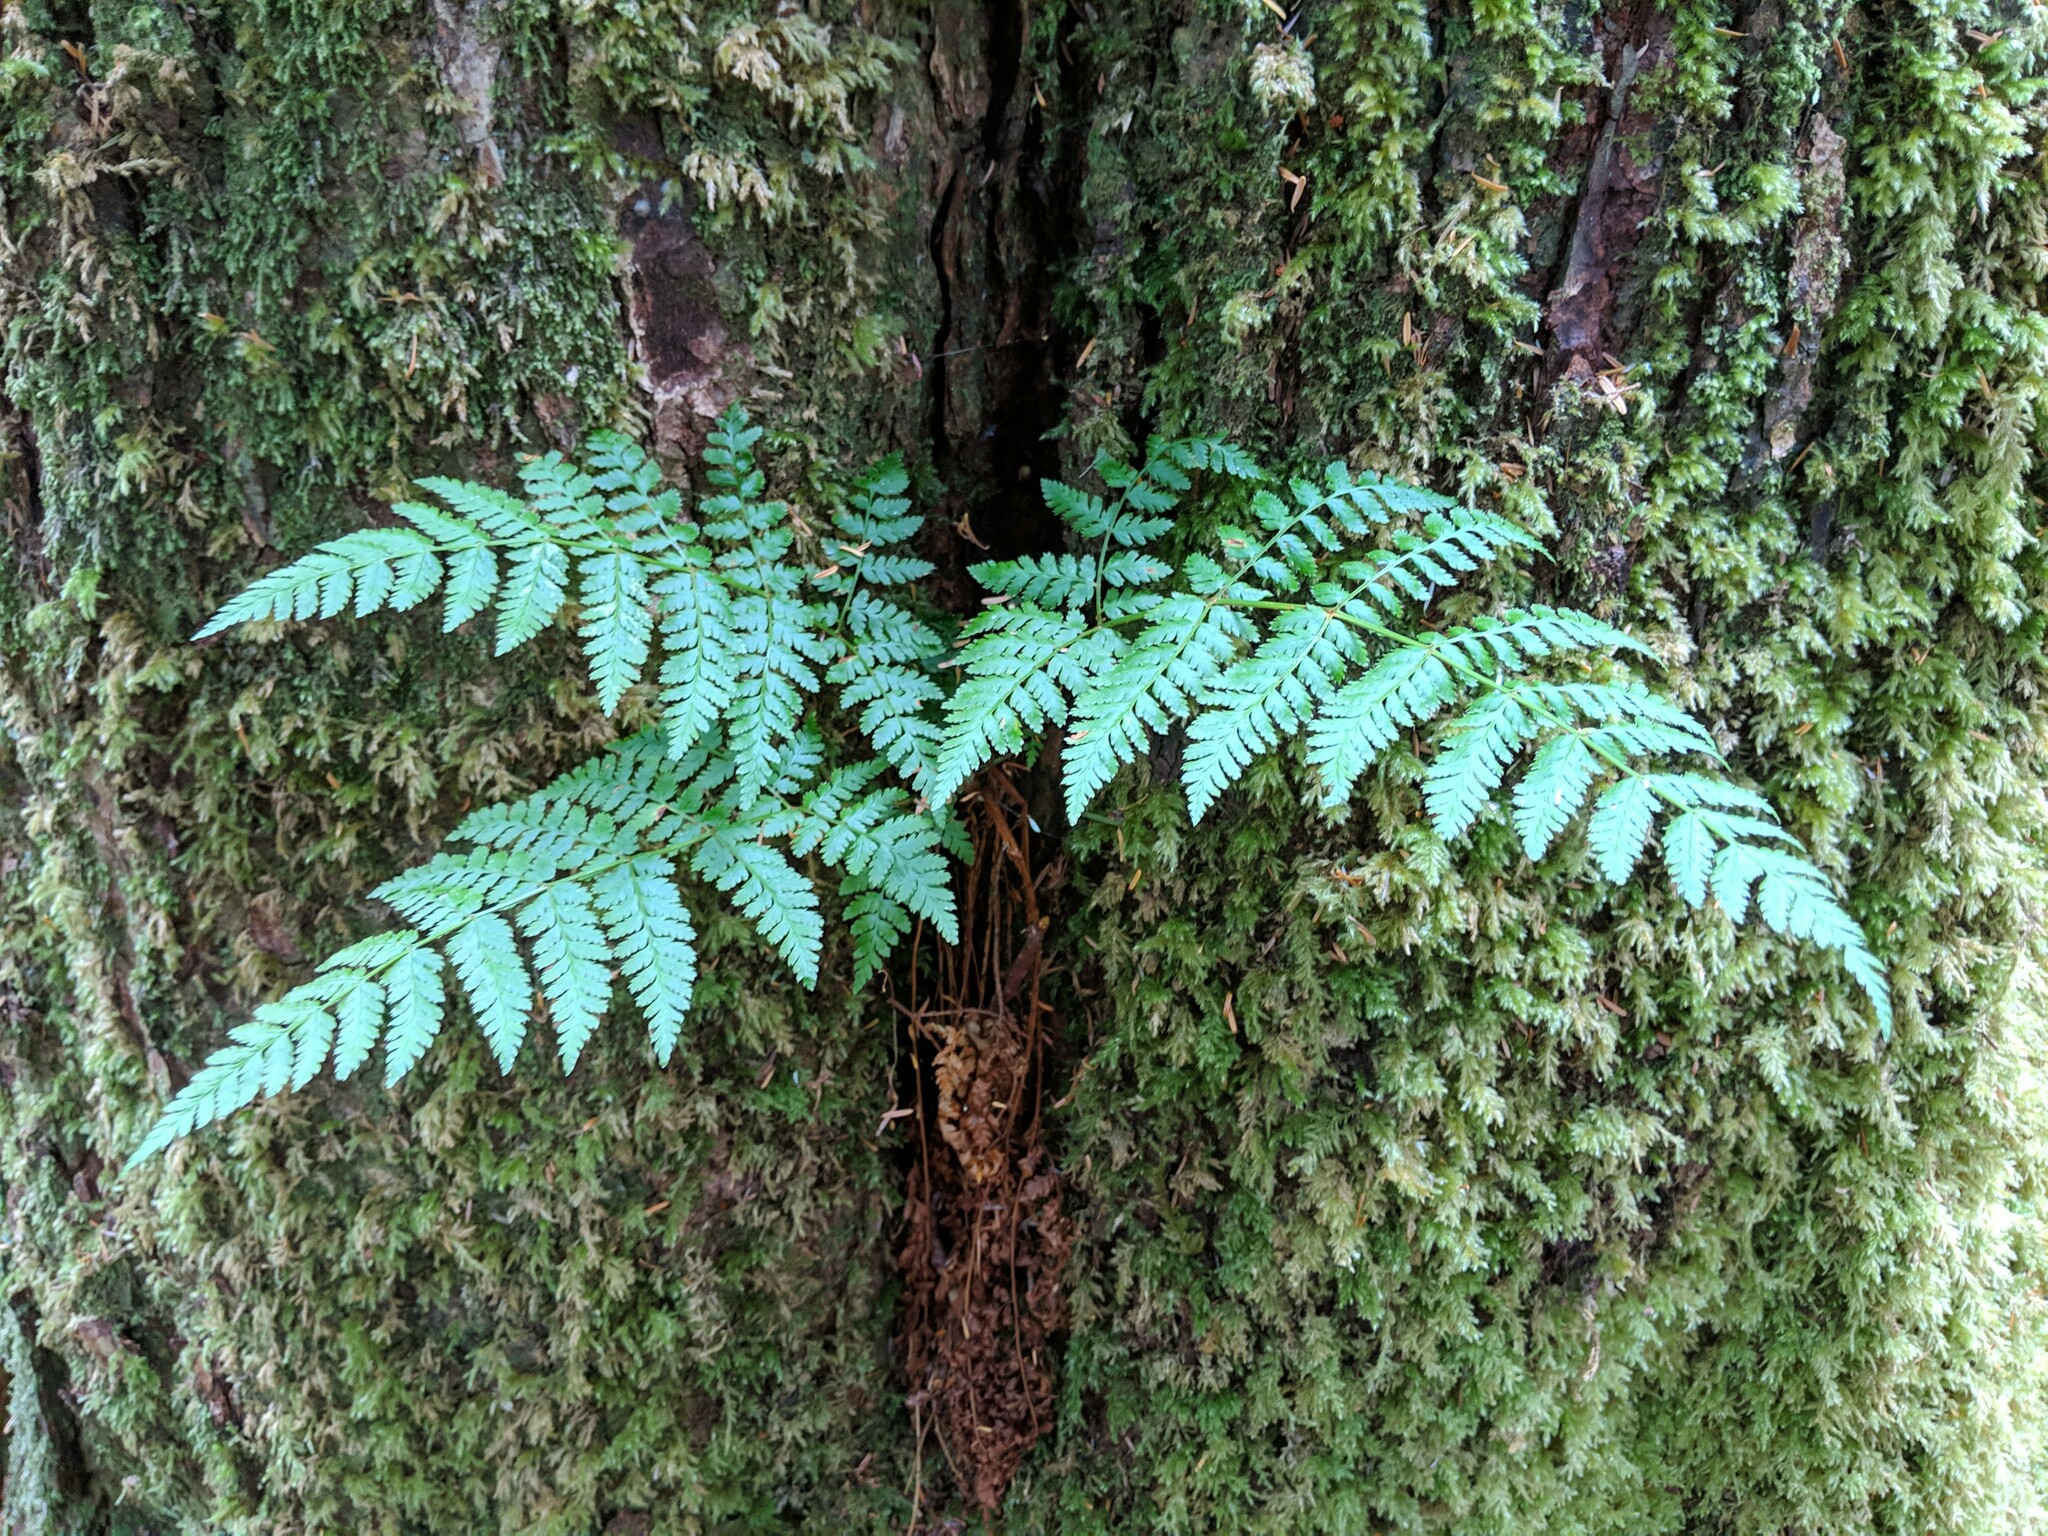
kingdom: Plantae
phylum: Tracheophyta
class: Polypodiopsida
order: Polypodiales
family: Dryopteridaceae
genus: Dryopteris
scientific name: Dryopteris expansa
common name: Northern buckler fern
